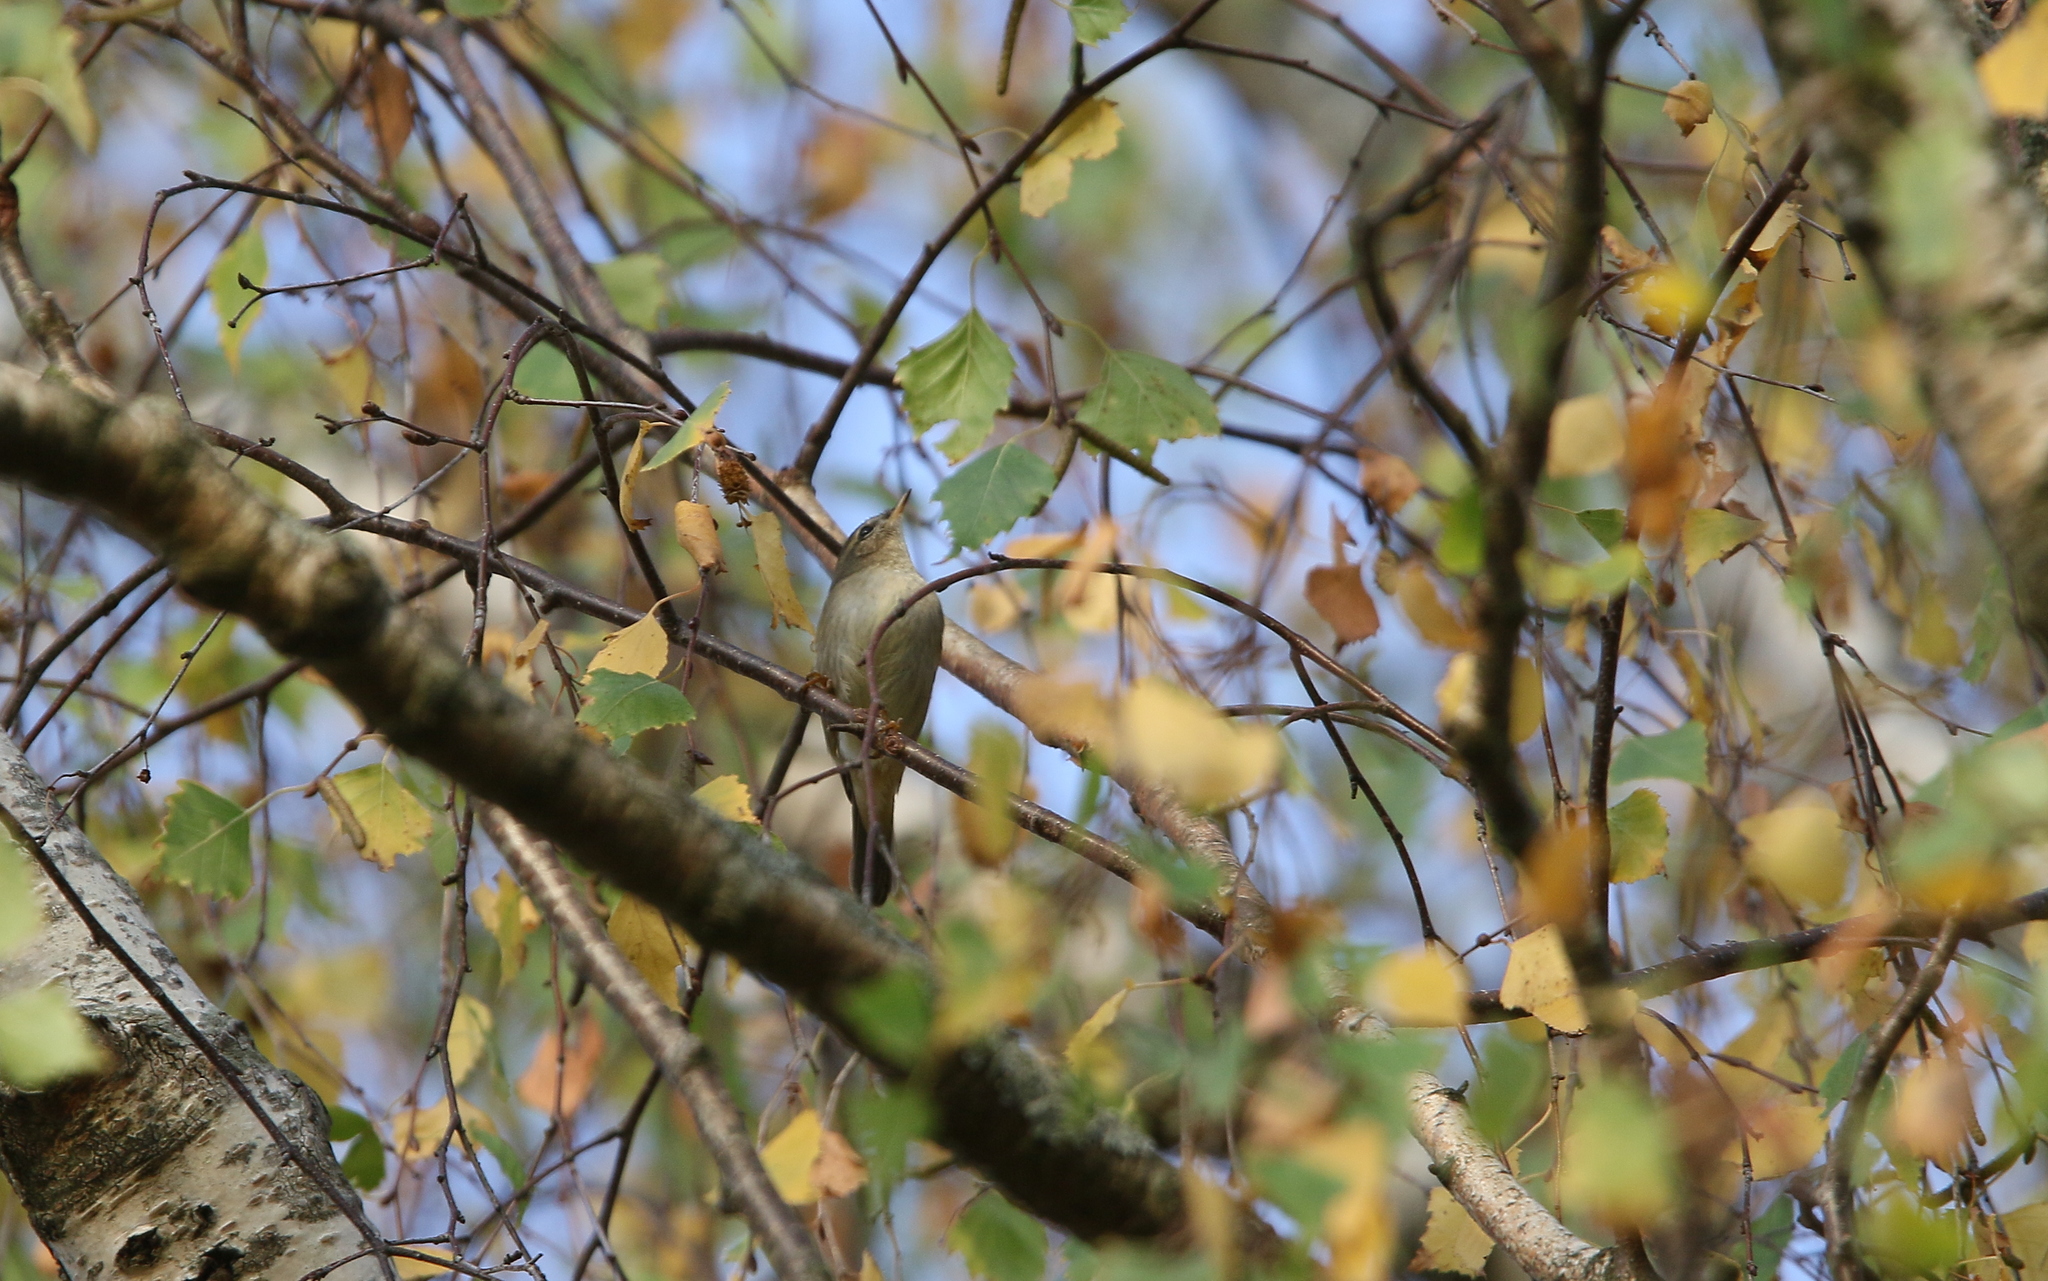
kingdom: Animalia
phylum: Chordata
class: Aves
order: Passeriformes
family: Phylloscopidae
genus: Phylloscopus
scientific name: Phylloscopus fuscatus
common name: Dusky warbler
